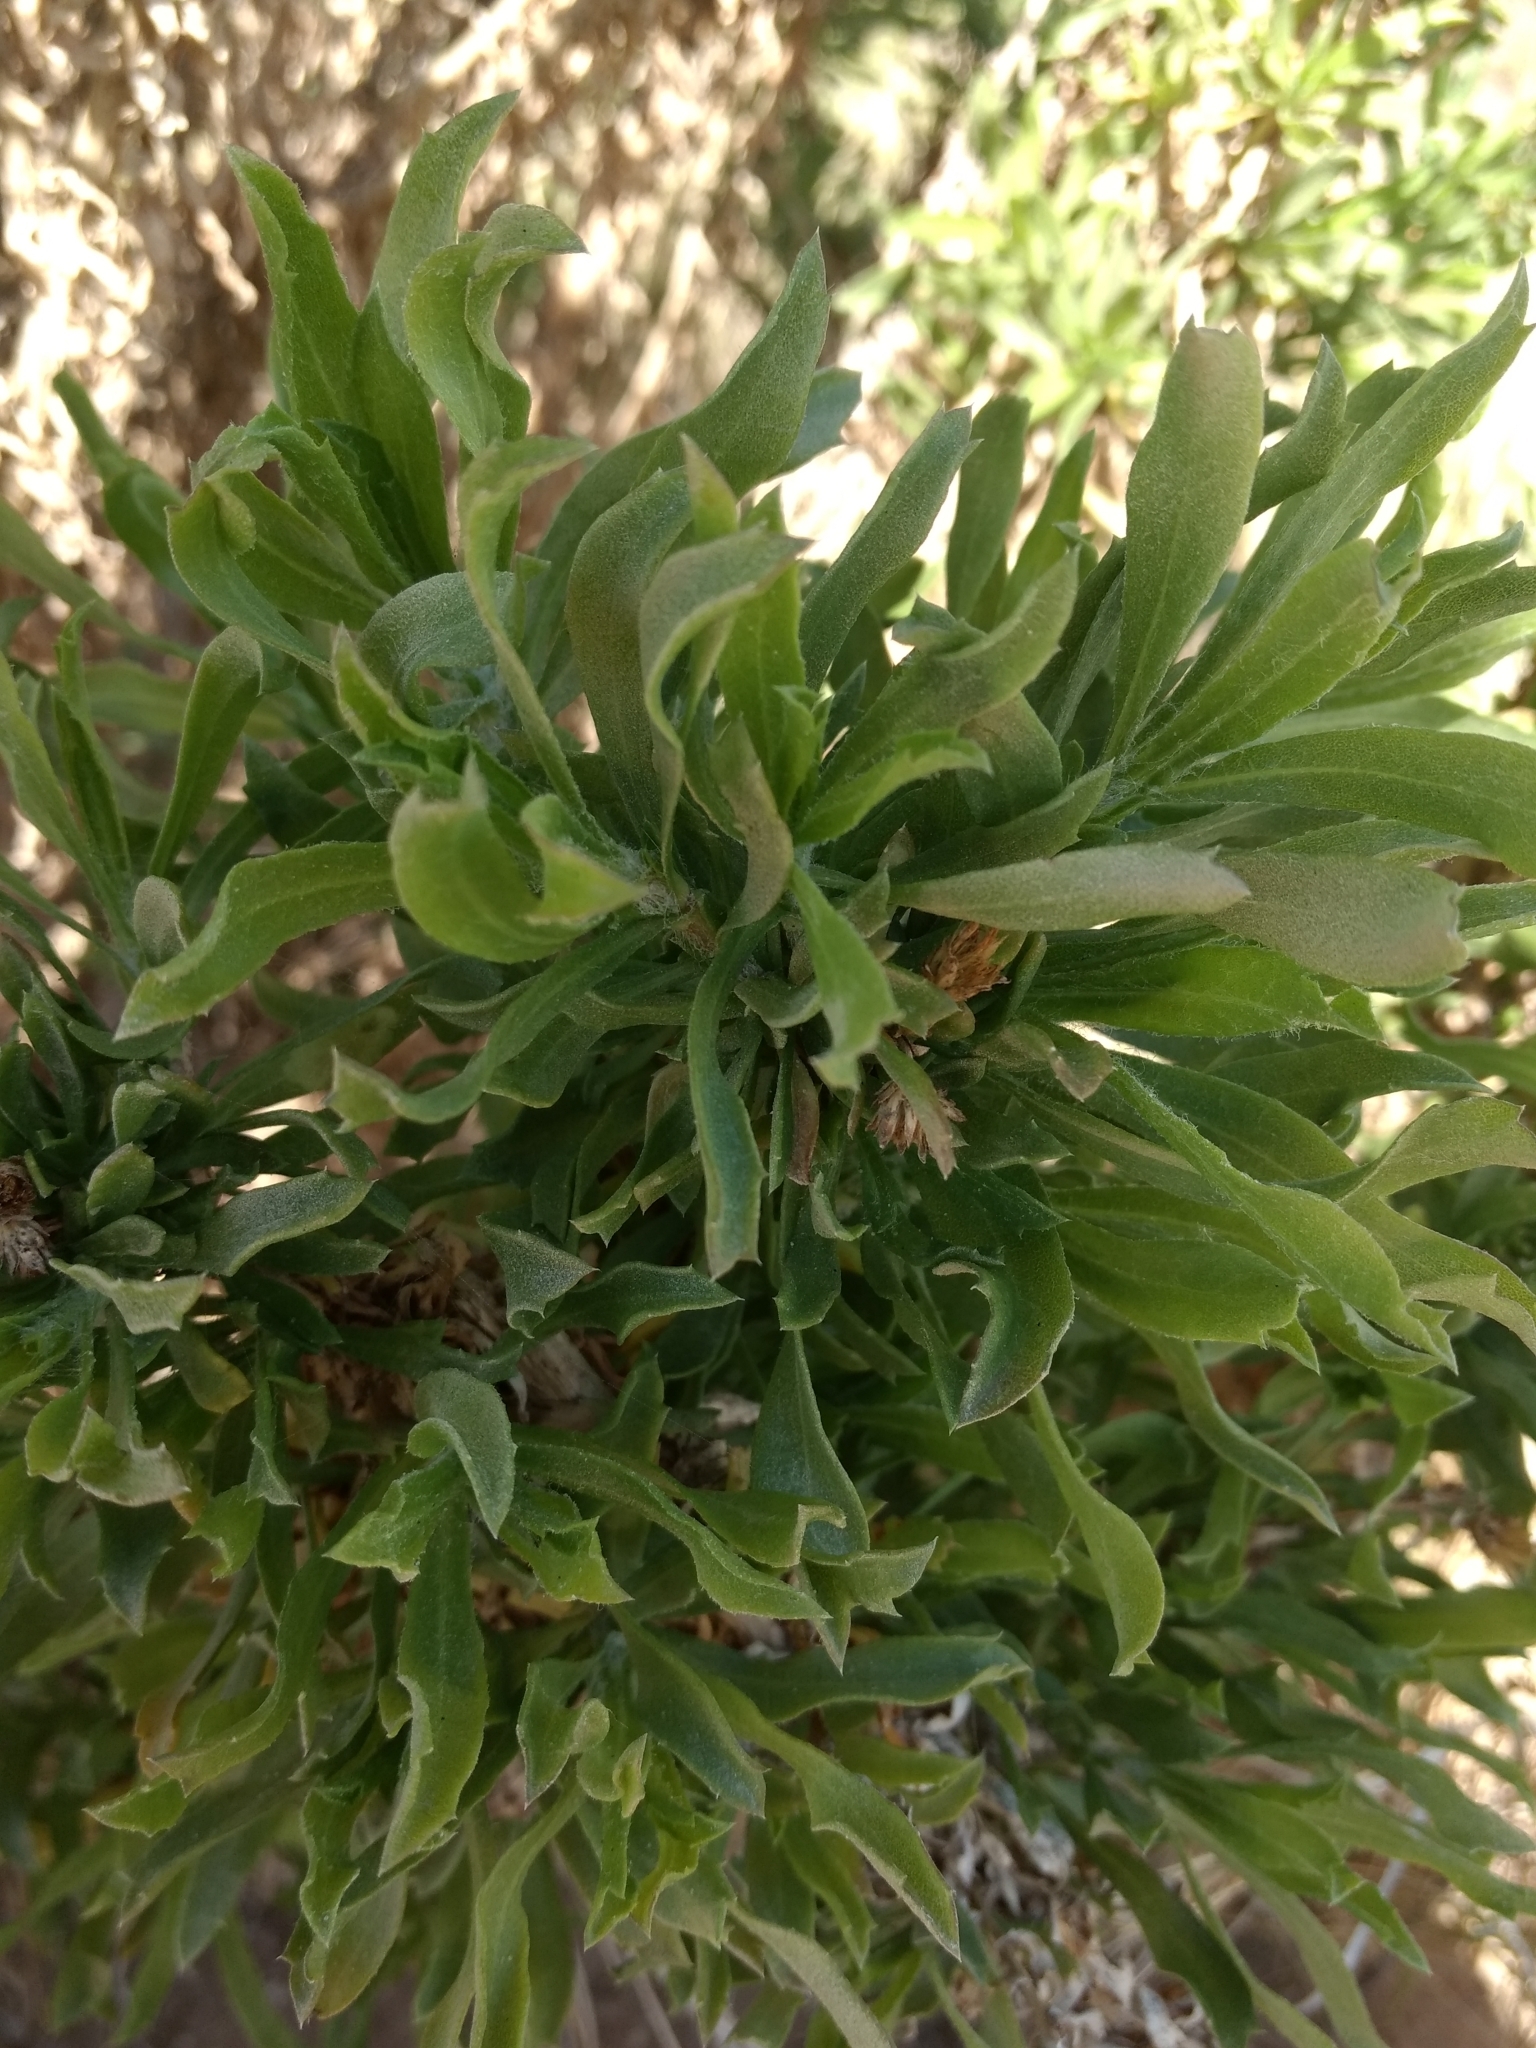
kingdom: Plantae
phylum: Tracheophyta
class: Magnoliopsida
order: Asterales
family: Asteraceae
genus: Isocoma
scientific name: Isocoma menziesii
